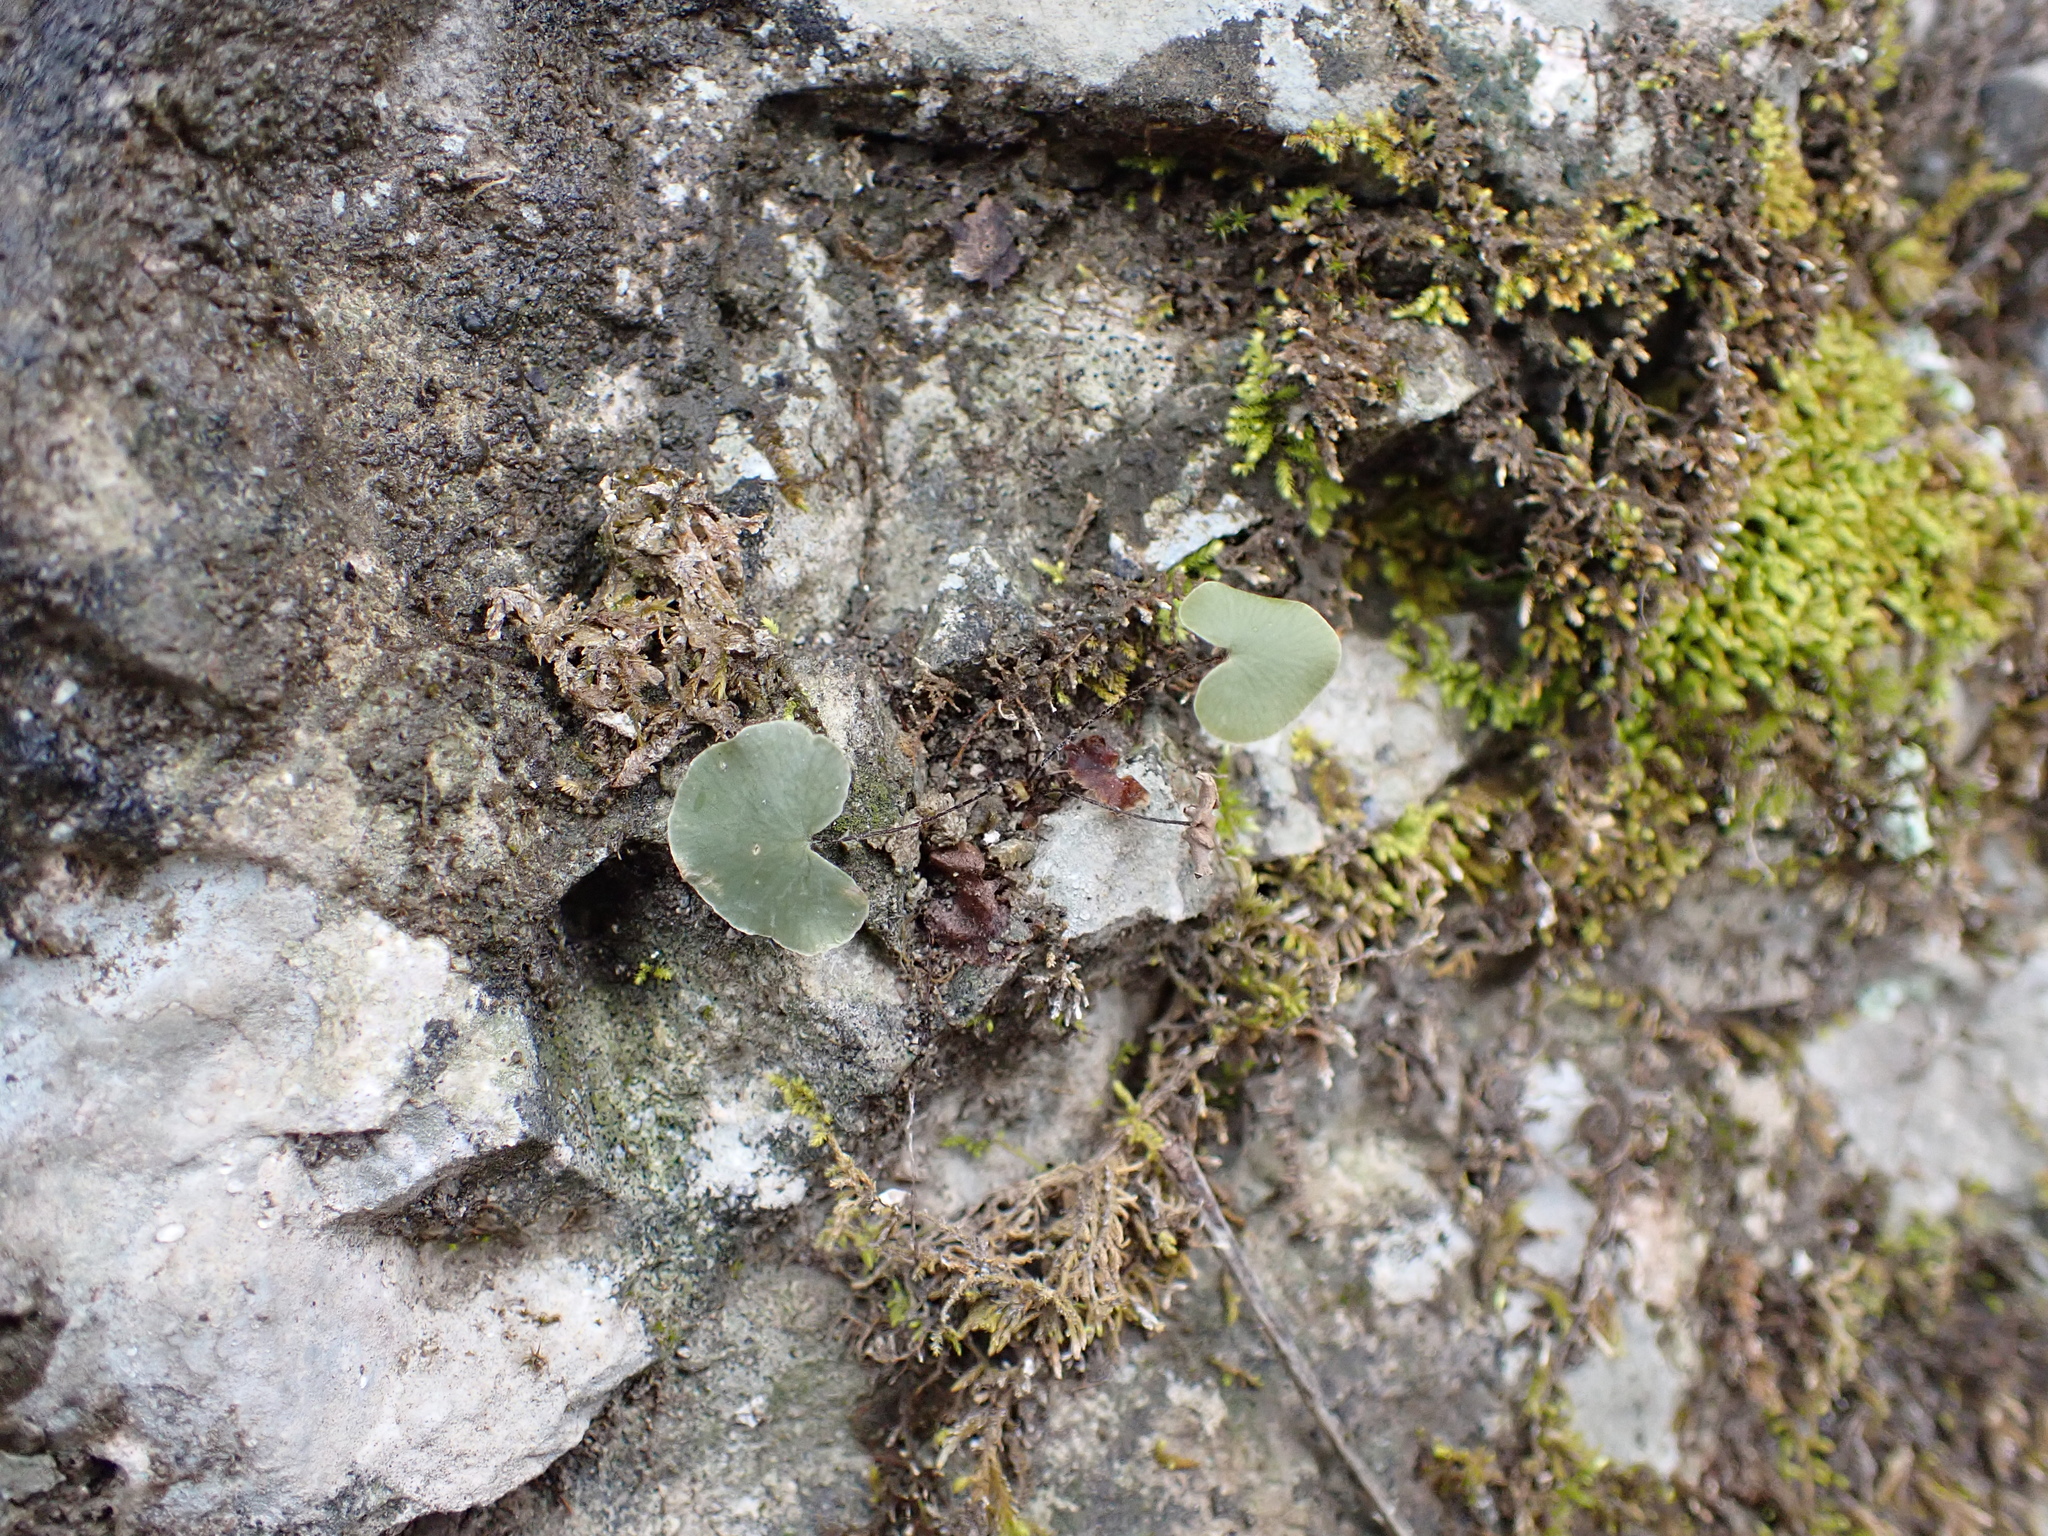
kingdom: Plantae
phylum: Tracheophyta
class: Polypodiopsida
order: Polypodiales
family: Pteridaceae
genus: Pellaea
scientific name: Pellaea atropurpurea
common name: Hairy cliffbrake
